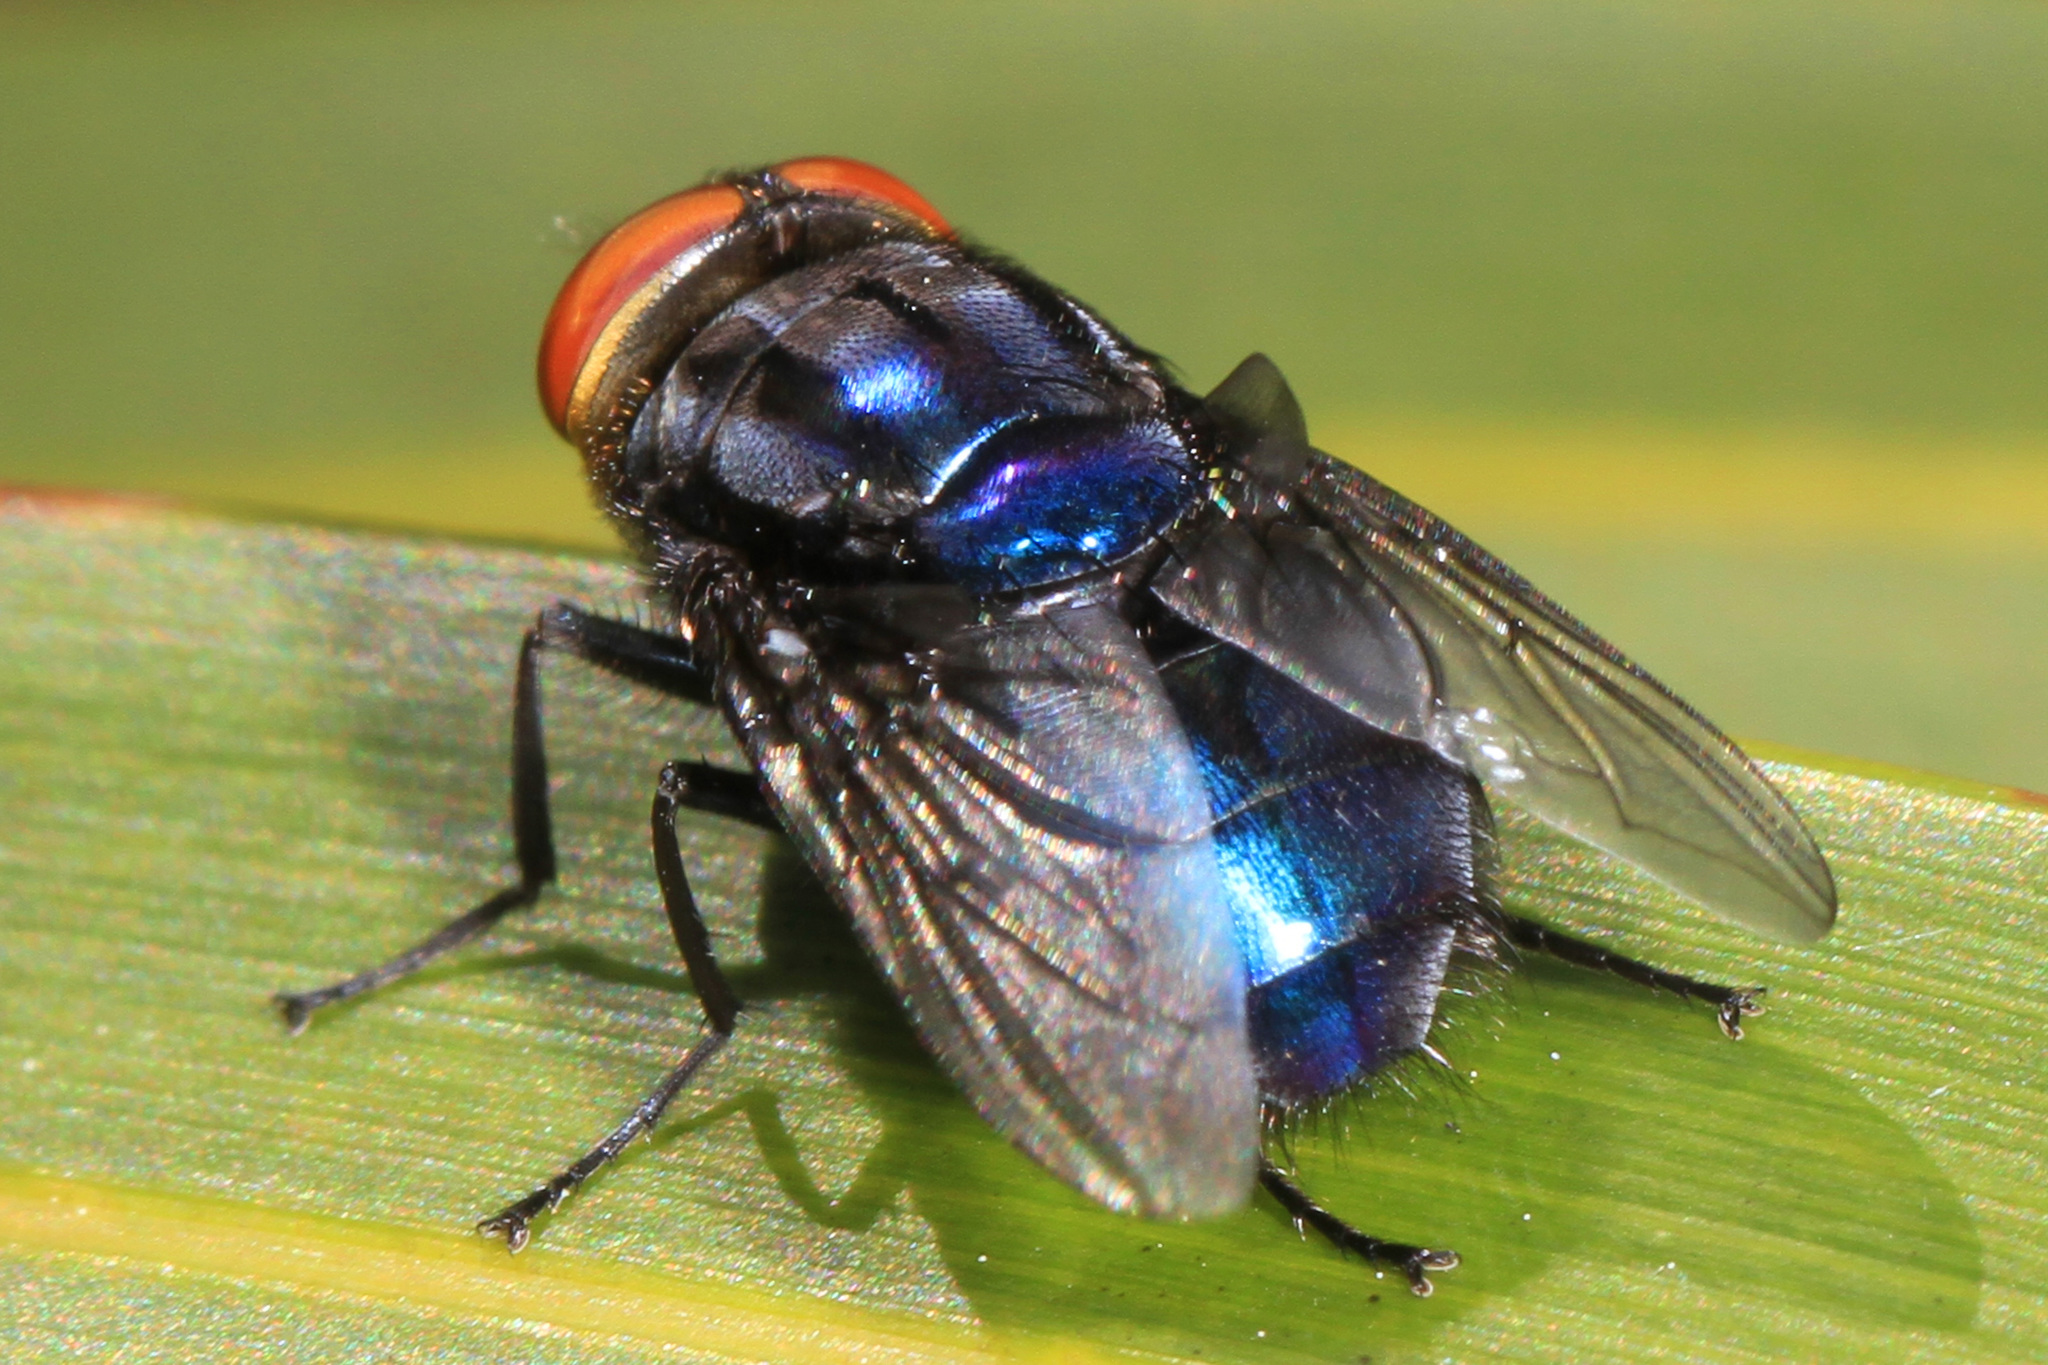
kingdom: Animalia
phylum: Arthropoda
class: Insecta
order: Diptera
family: Calliphoridae
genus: Cochliomyia
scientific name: Cochliomyia hominivorax
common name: New world screwworm
